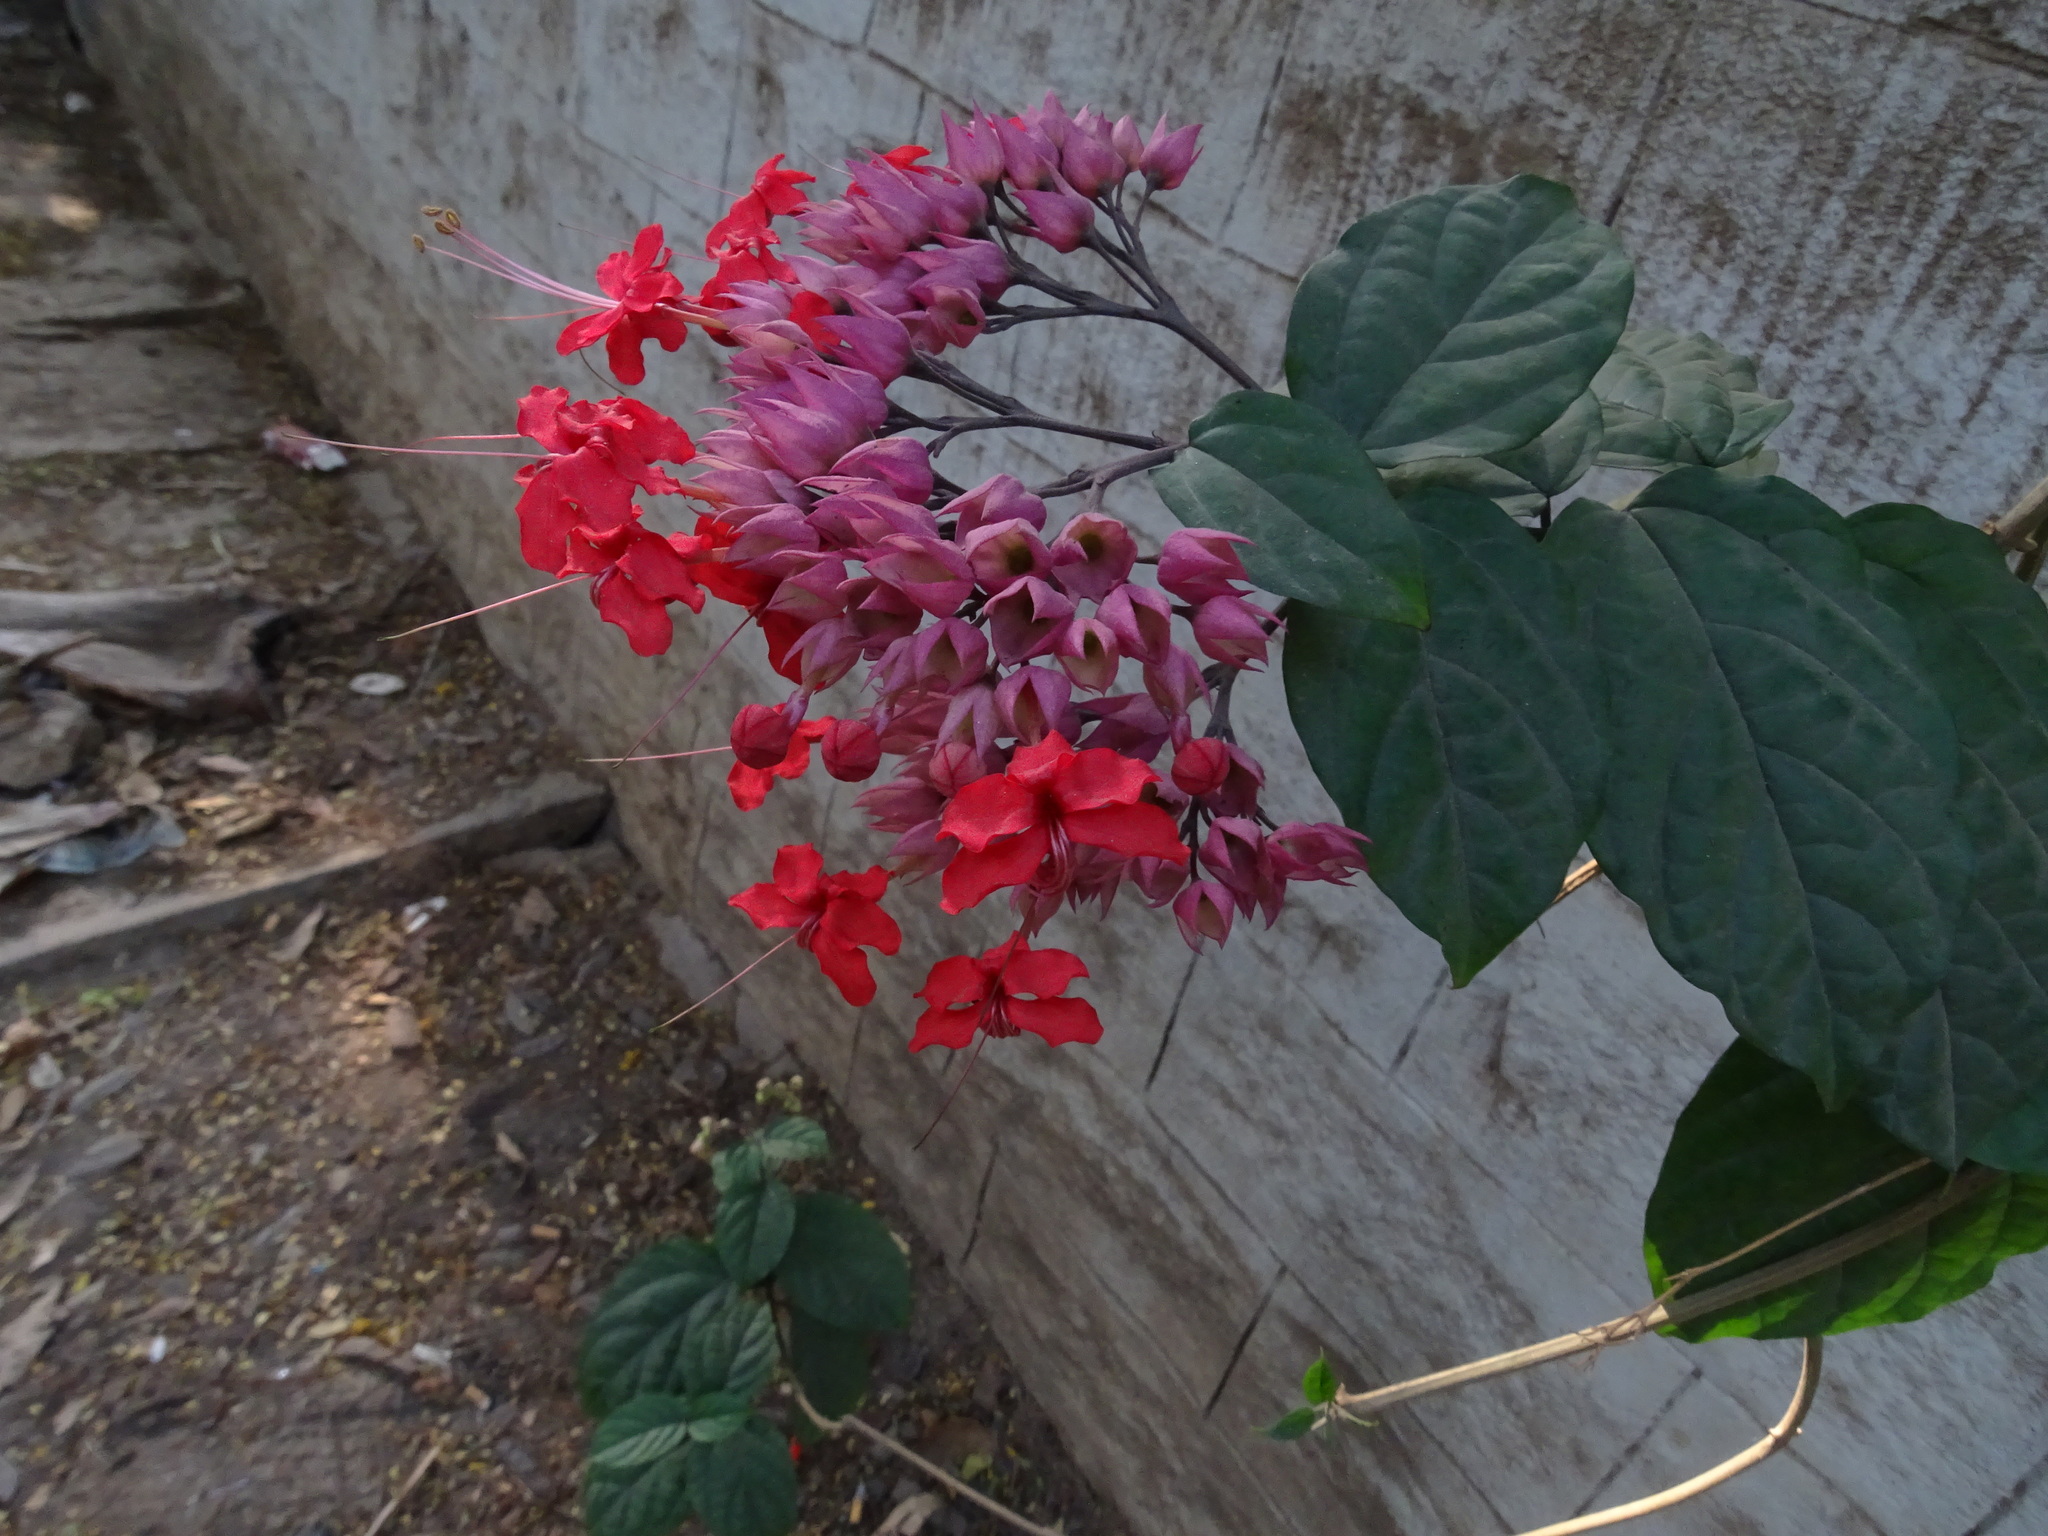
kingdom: Plantae
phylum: Tracheophyta
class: Magnoliopsida
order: Lamiales
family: Lamiaceae
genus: Clerodendrum
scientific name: Clerodendrum speciosum
